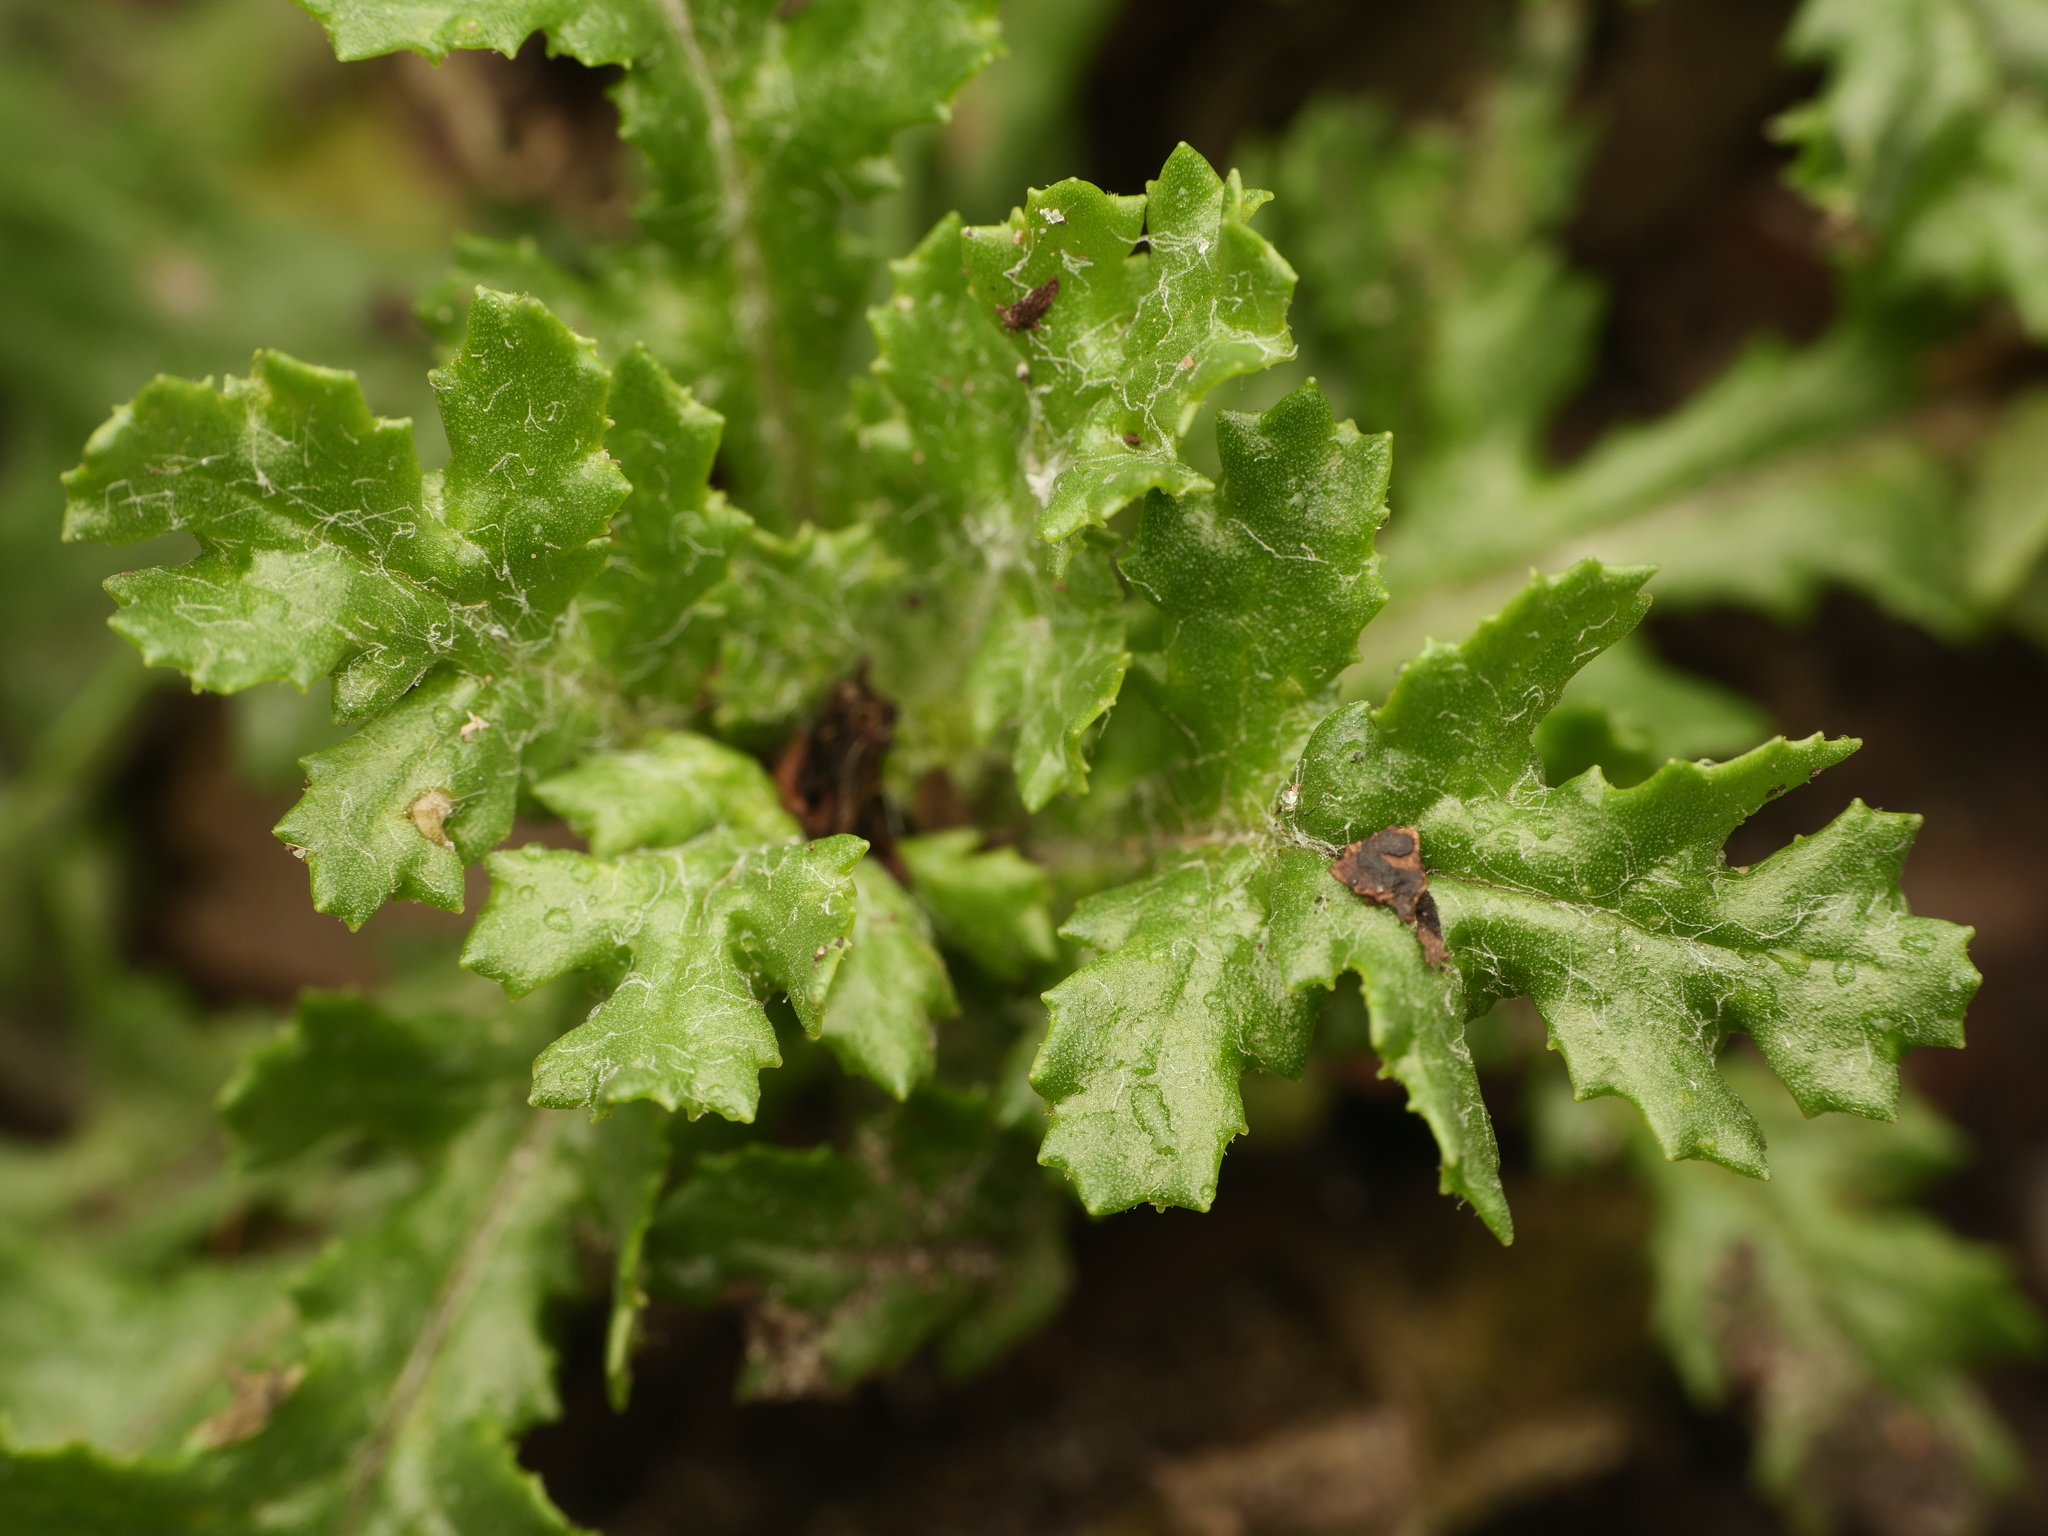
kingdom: Plantae
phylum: Tracheophyta
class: Magnoliopsida
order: Asterales
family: Asteraceae
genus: Senecio
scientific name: Senecio vulgaris
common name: Old-man-in-the-spring
